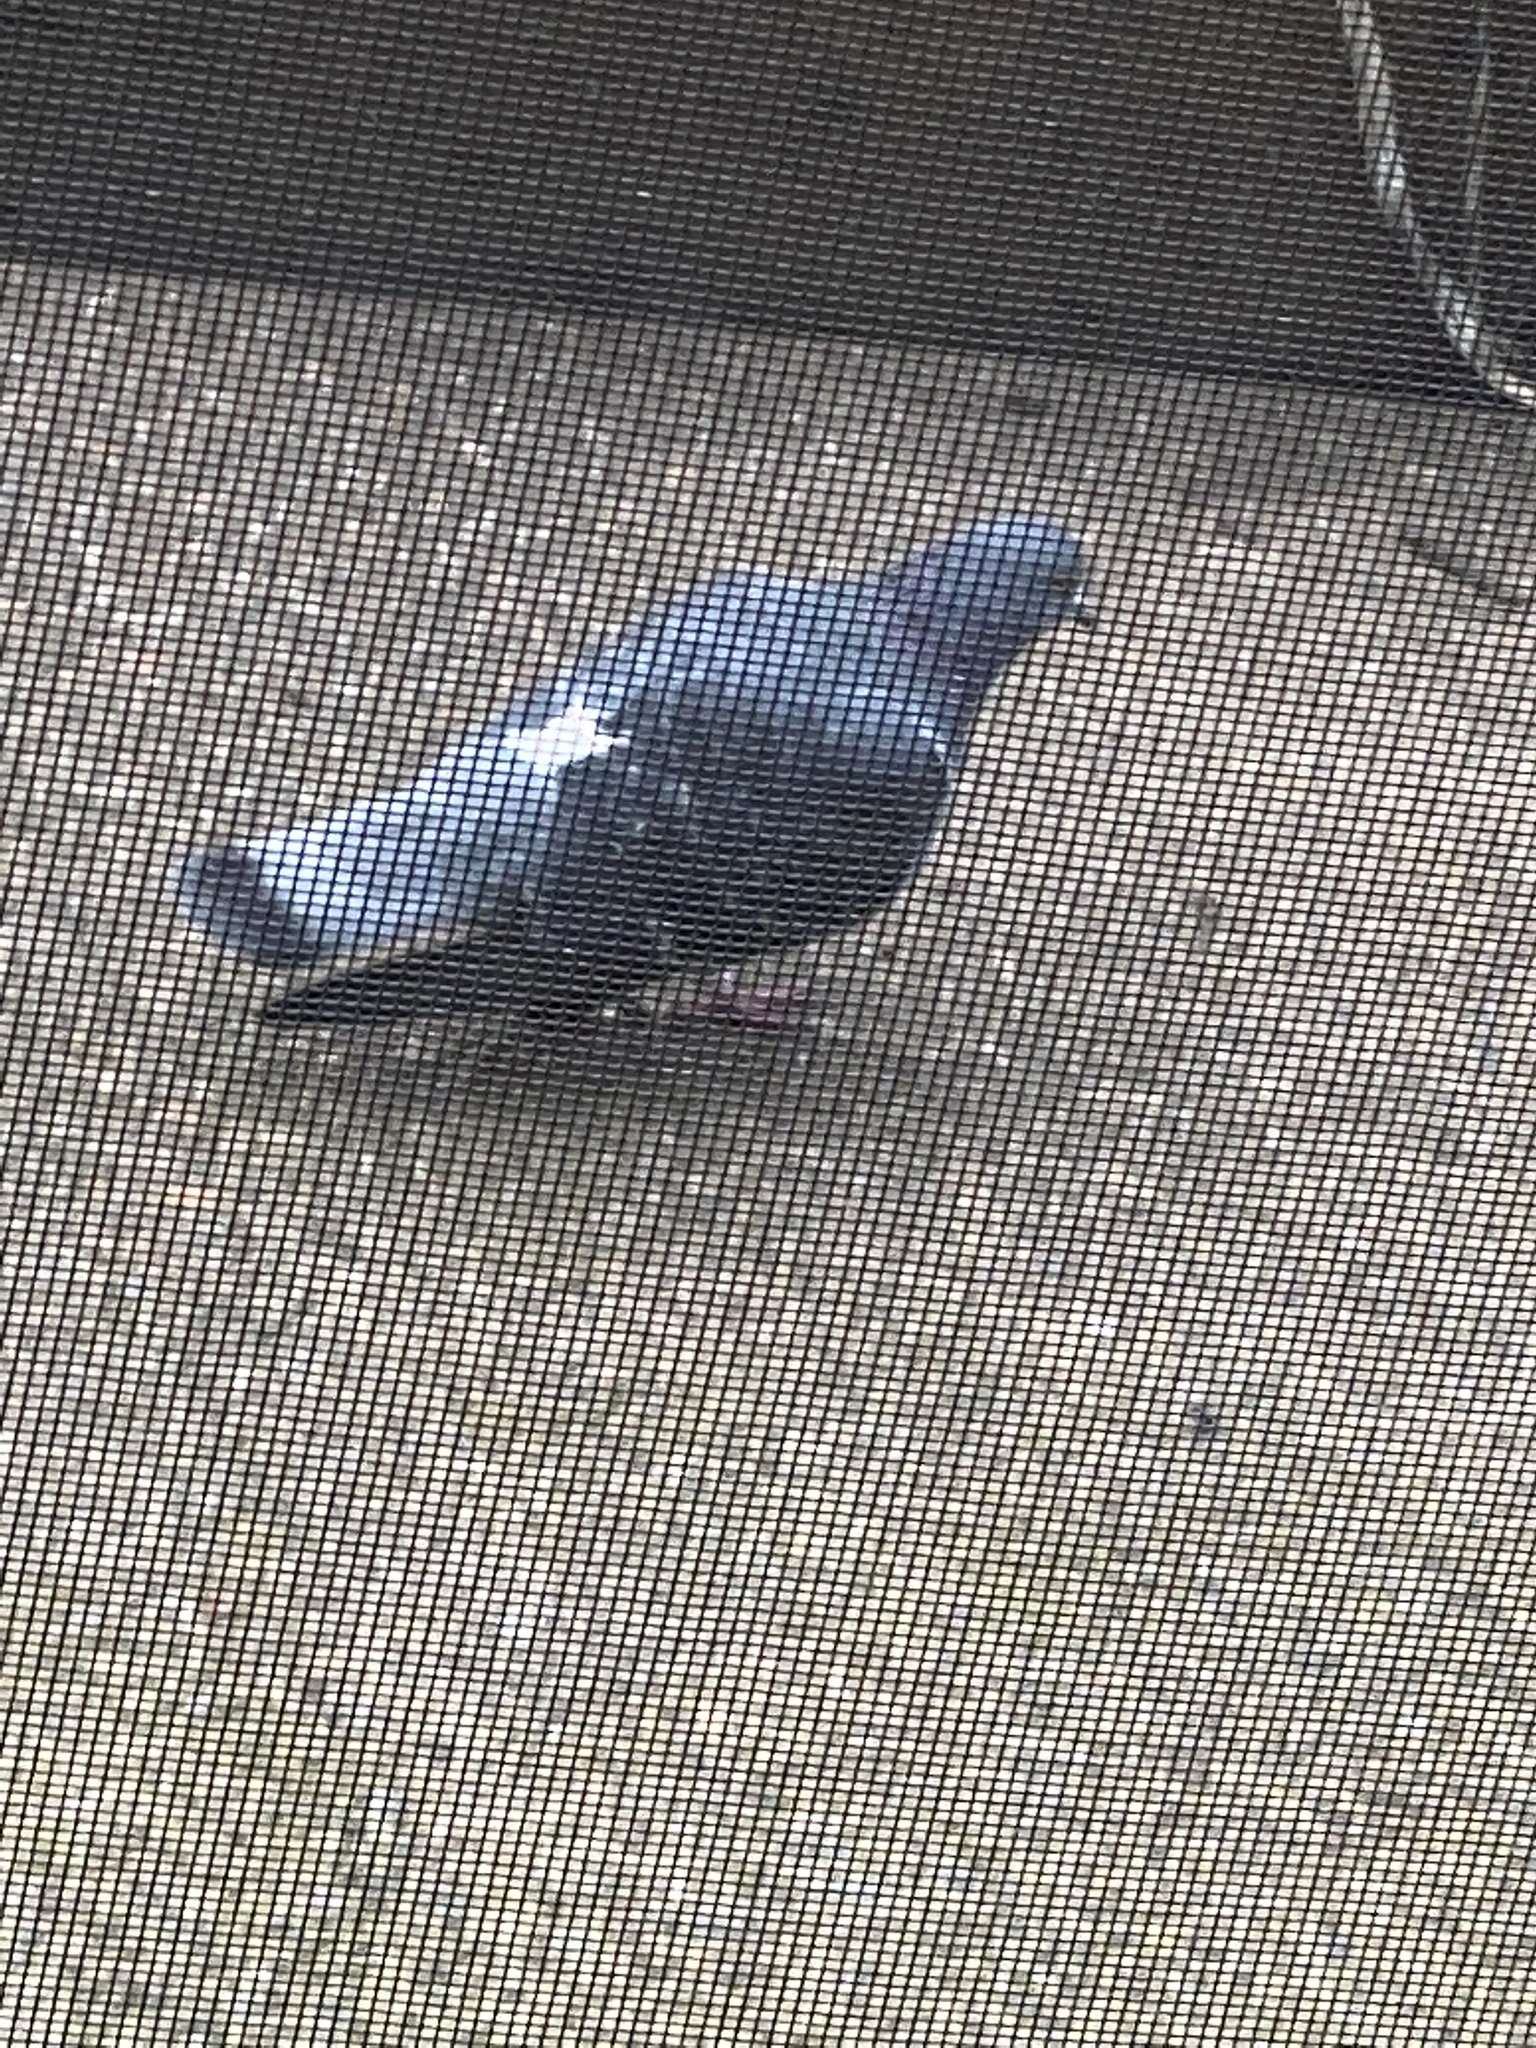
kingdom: Animalia
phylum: Chordata
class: Aves
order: Columbiformes
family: Columbidae
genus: Columba
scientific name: Columba livia
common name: Rock pigeon
